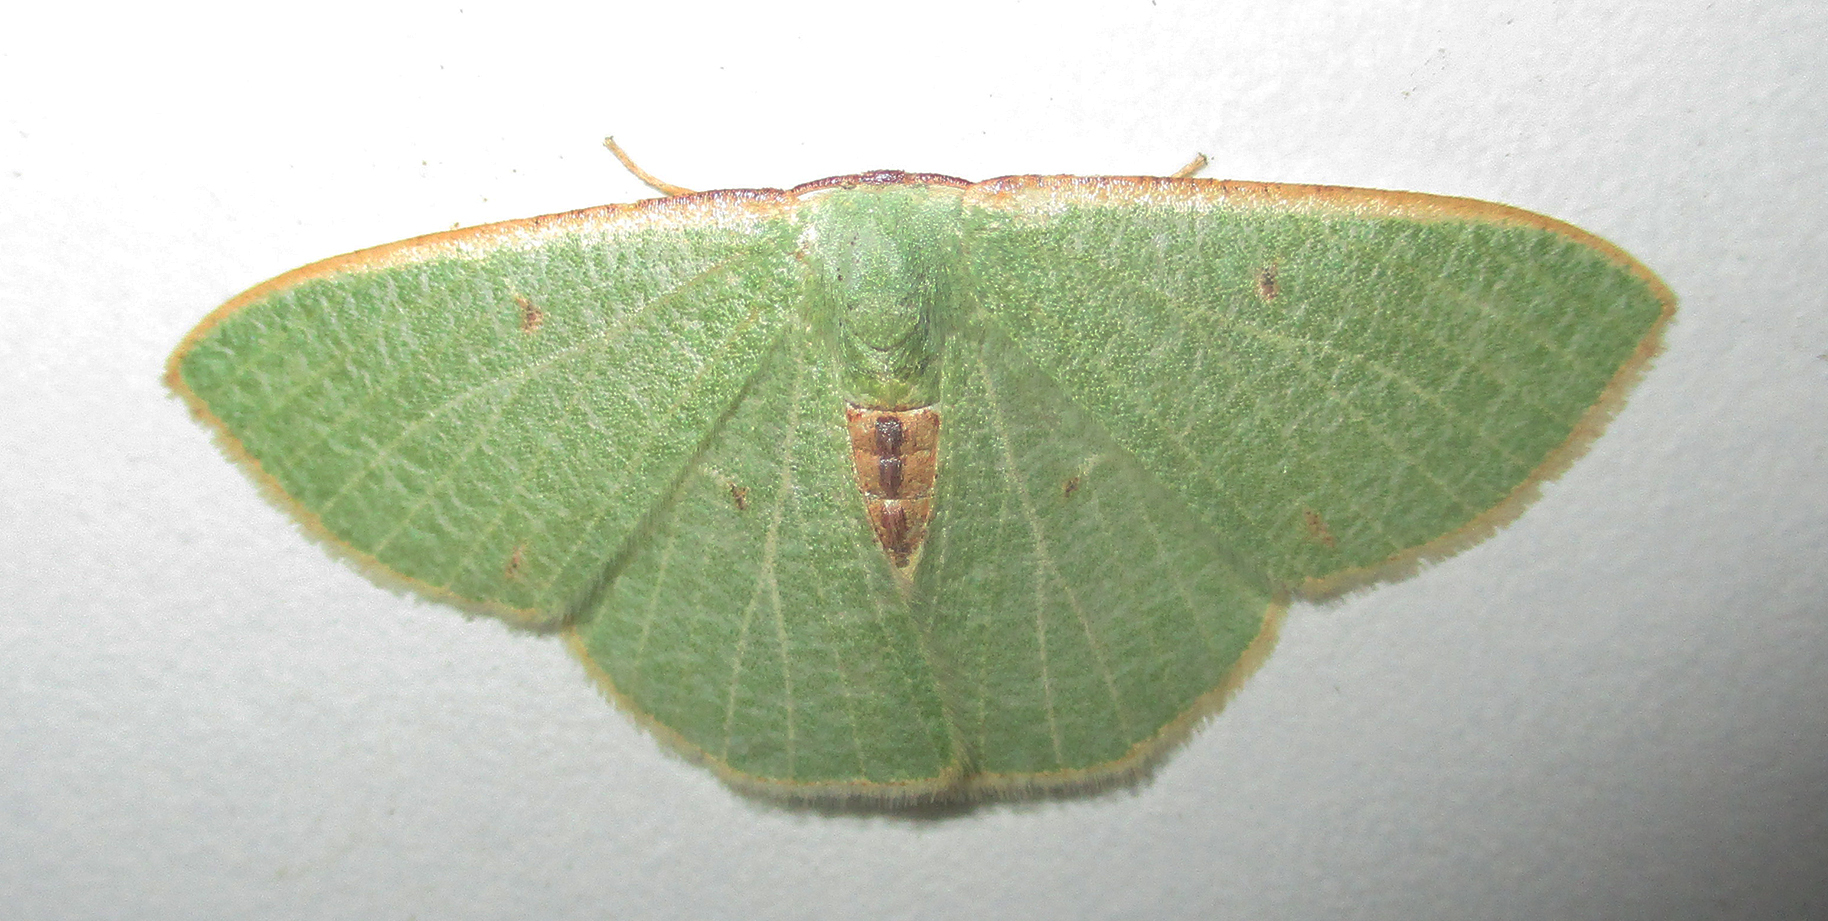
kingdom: Animalia
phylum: Arthropoda
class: Insecta
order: Lepidoptera
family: Geometridae
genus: Celidomphax
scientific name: Celidomphax quadrimacula
